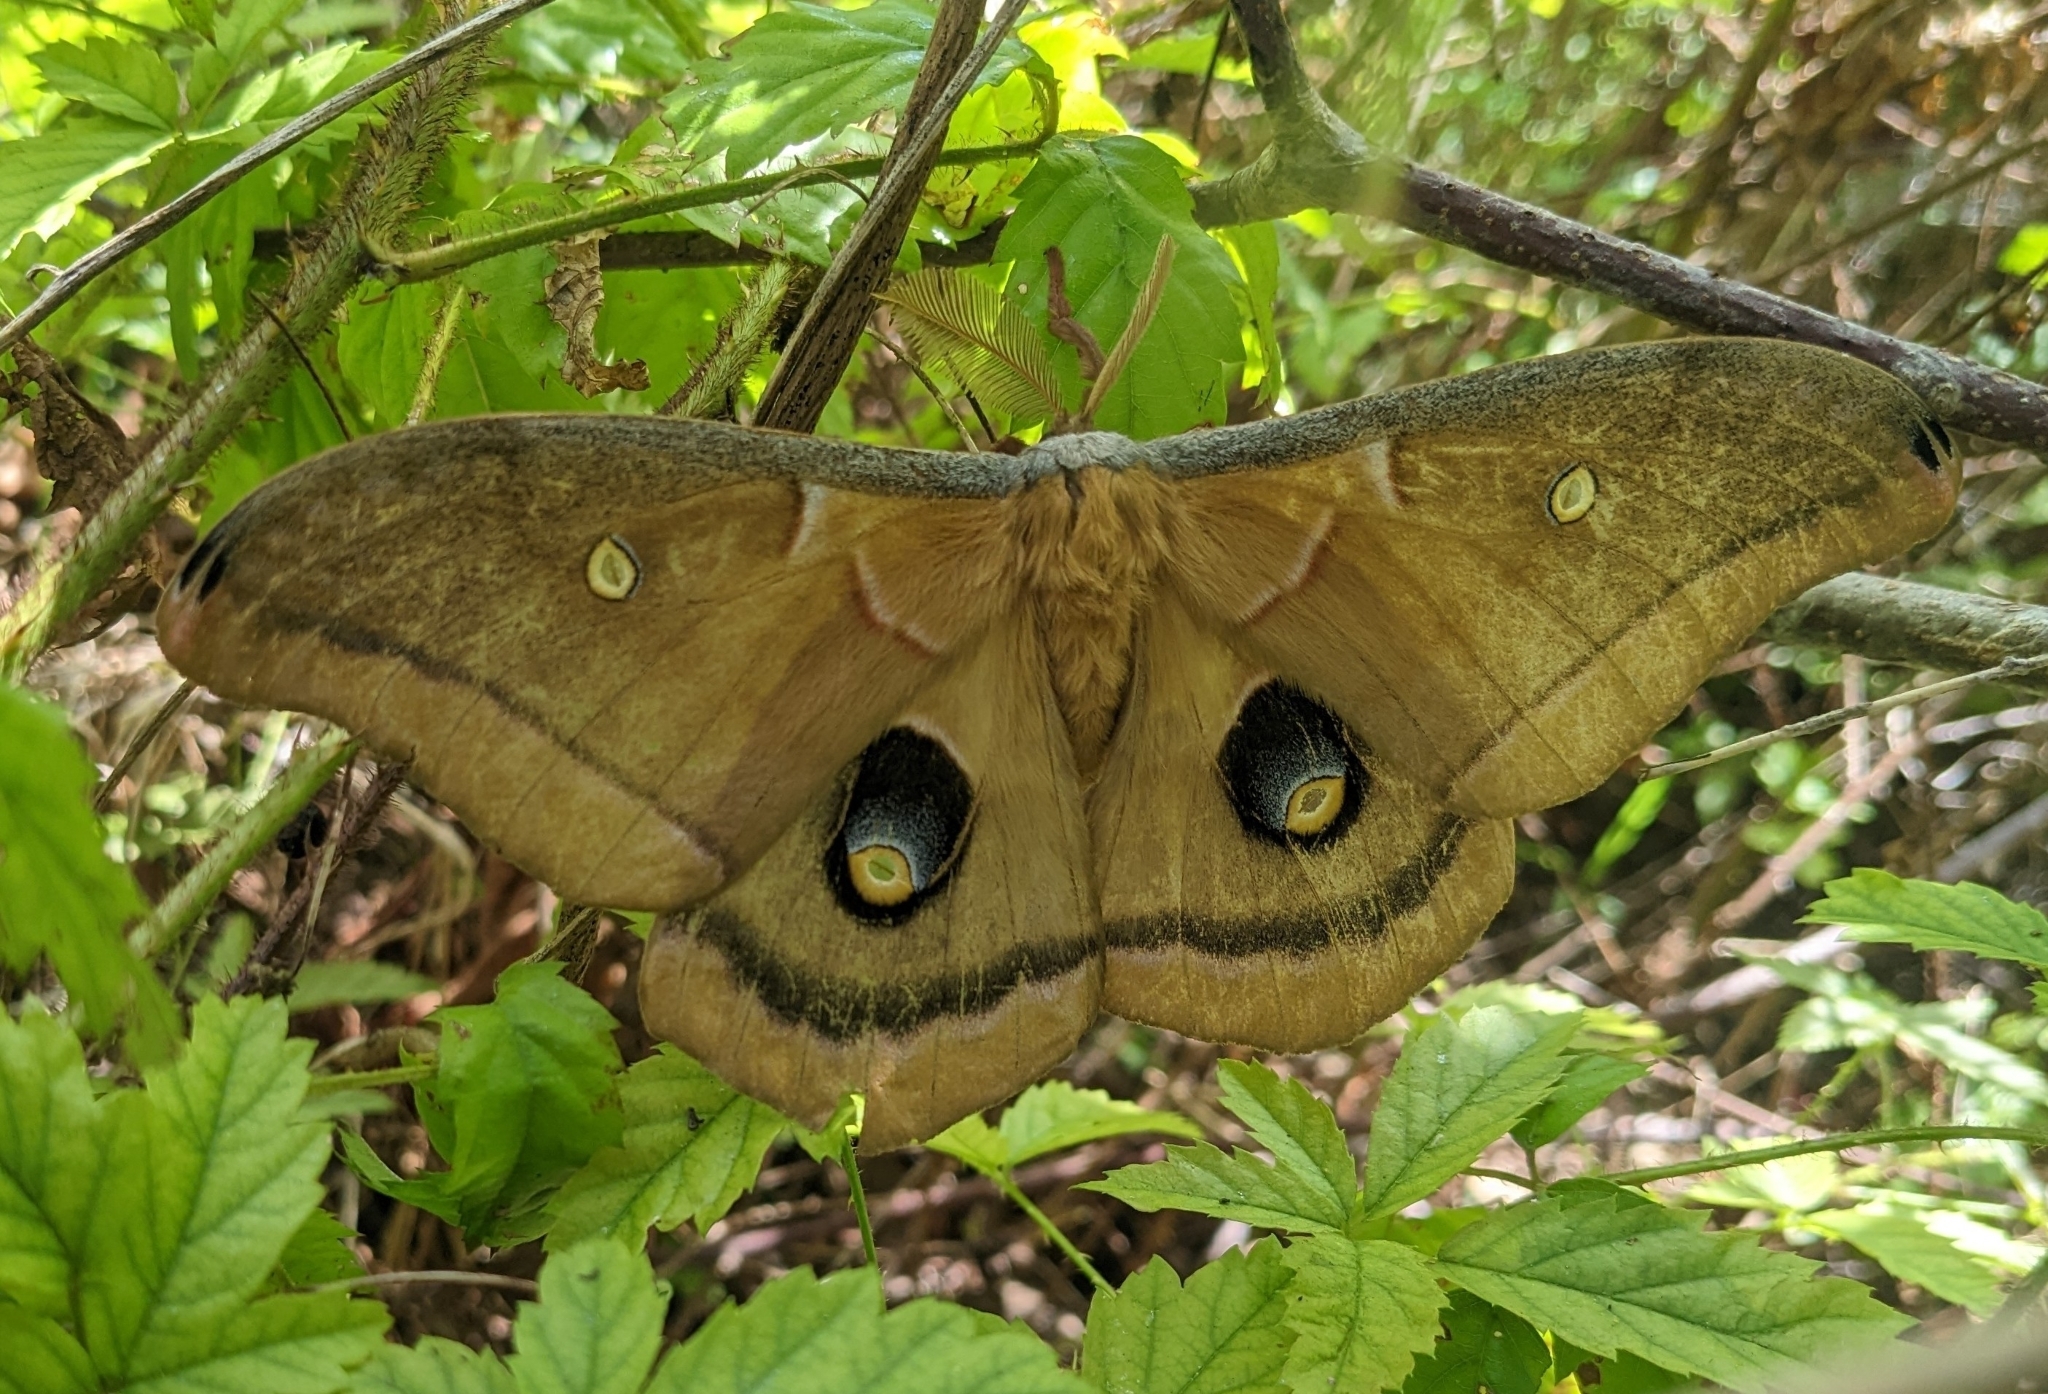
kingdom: Animalia
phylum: Arthropoda
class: Insecta
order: Lepidoptera
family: Saturniidae
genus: Antheraea
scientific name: Antheraea polyphemus
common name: Polyphemus moth
